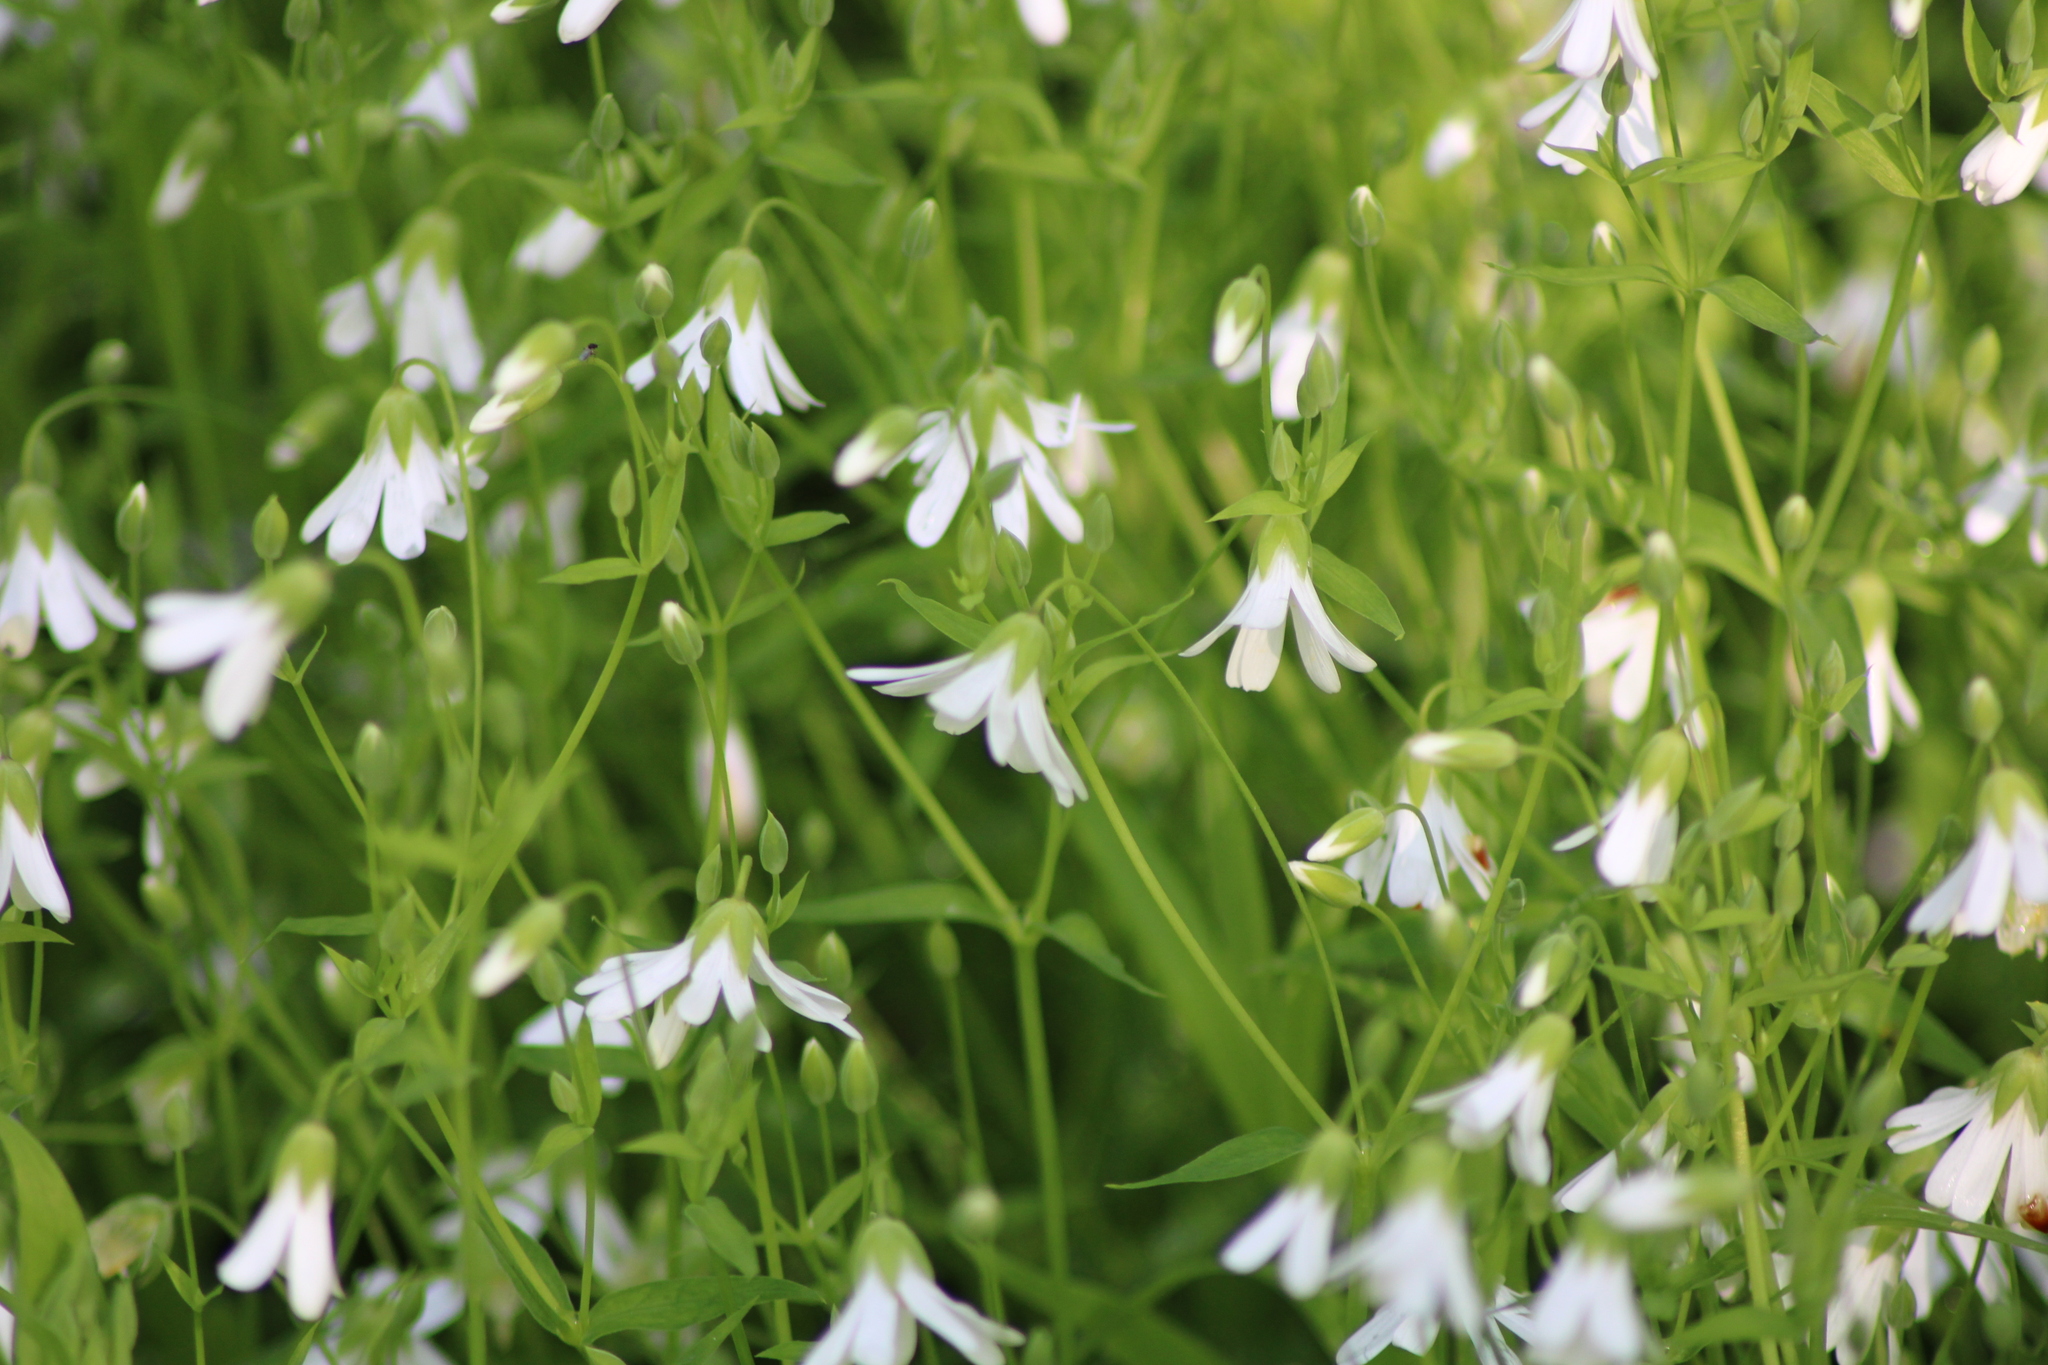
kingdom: Plantae
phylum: Tracheophyta
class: Magnoliopsida
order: Caryophyllales
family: Caryophyllaceae
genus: Rabelera
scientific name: Rabelera holostea
